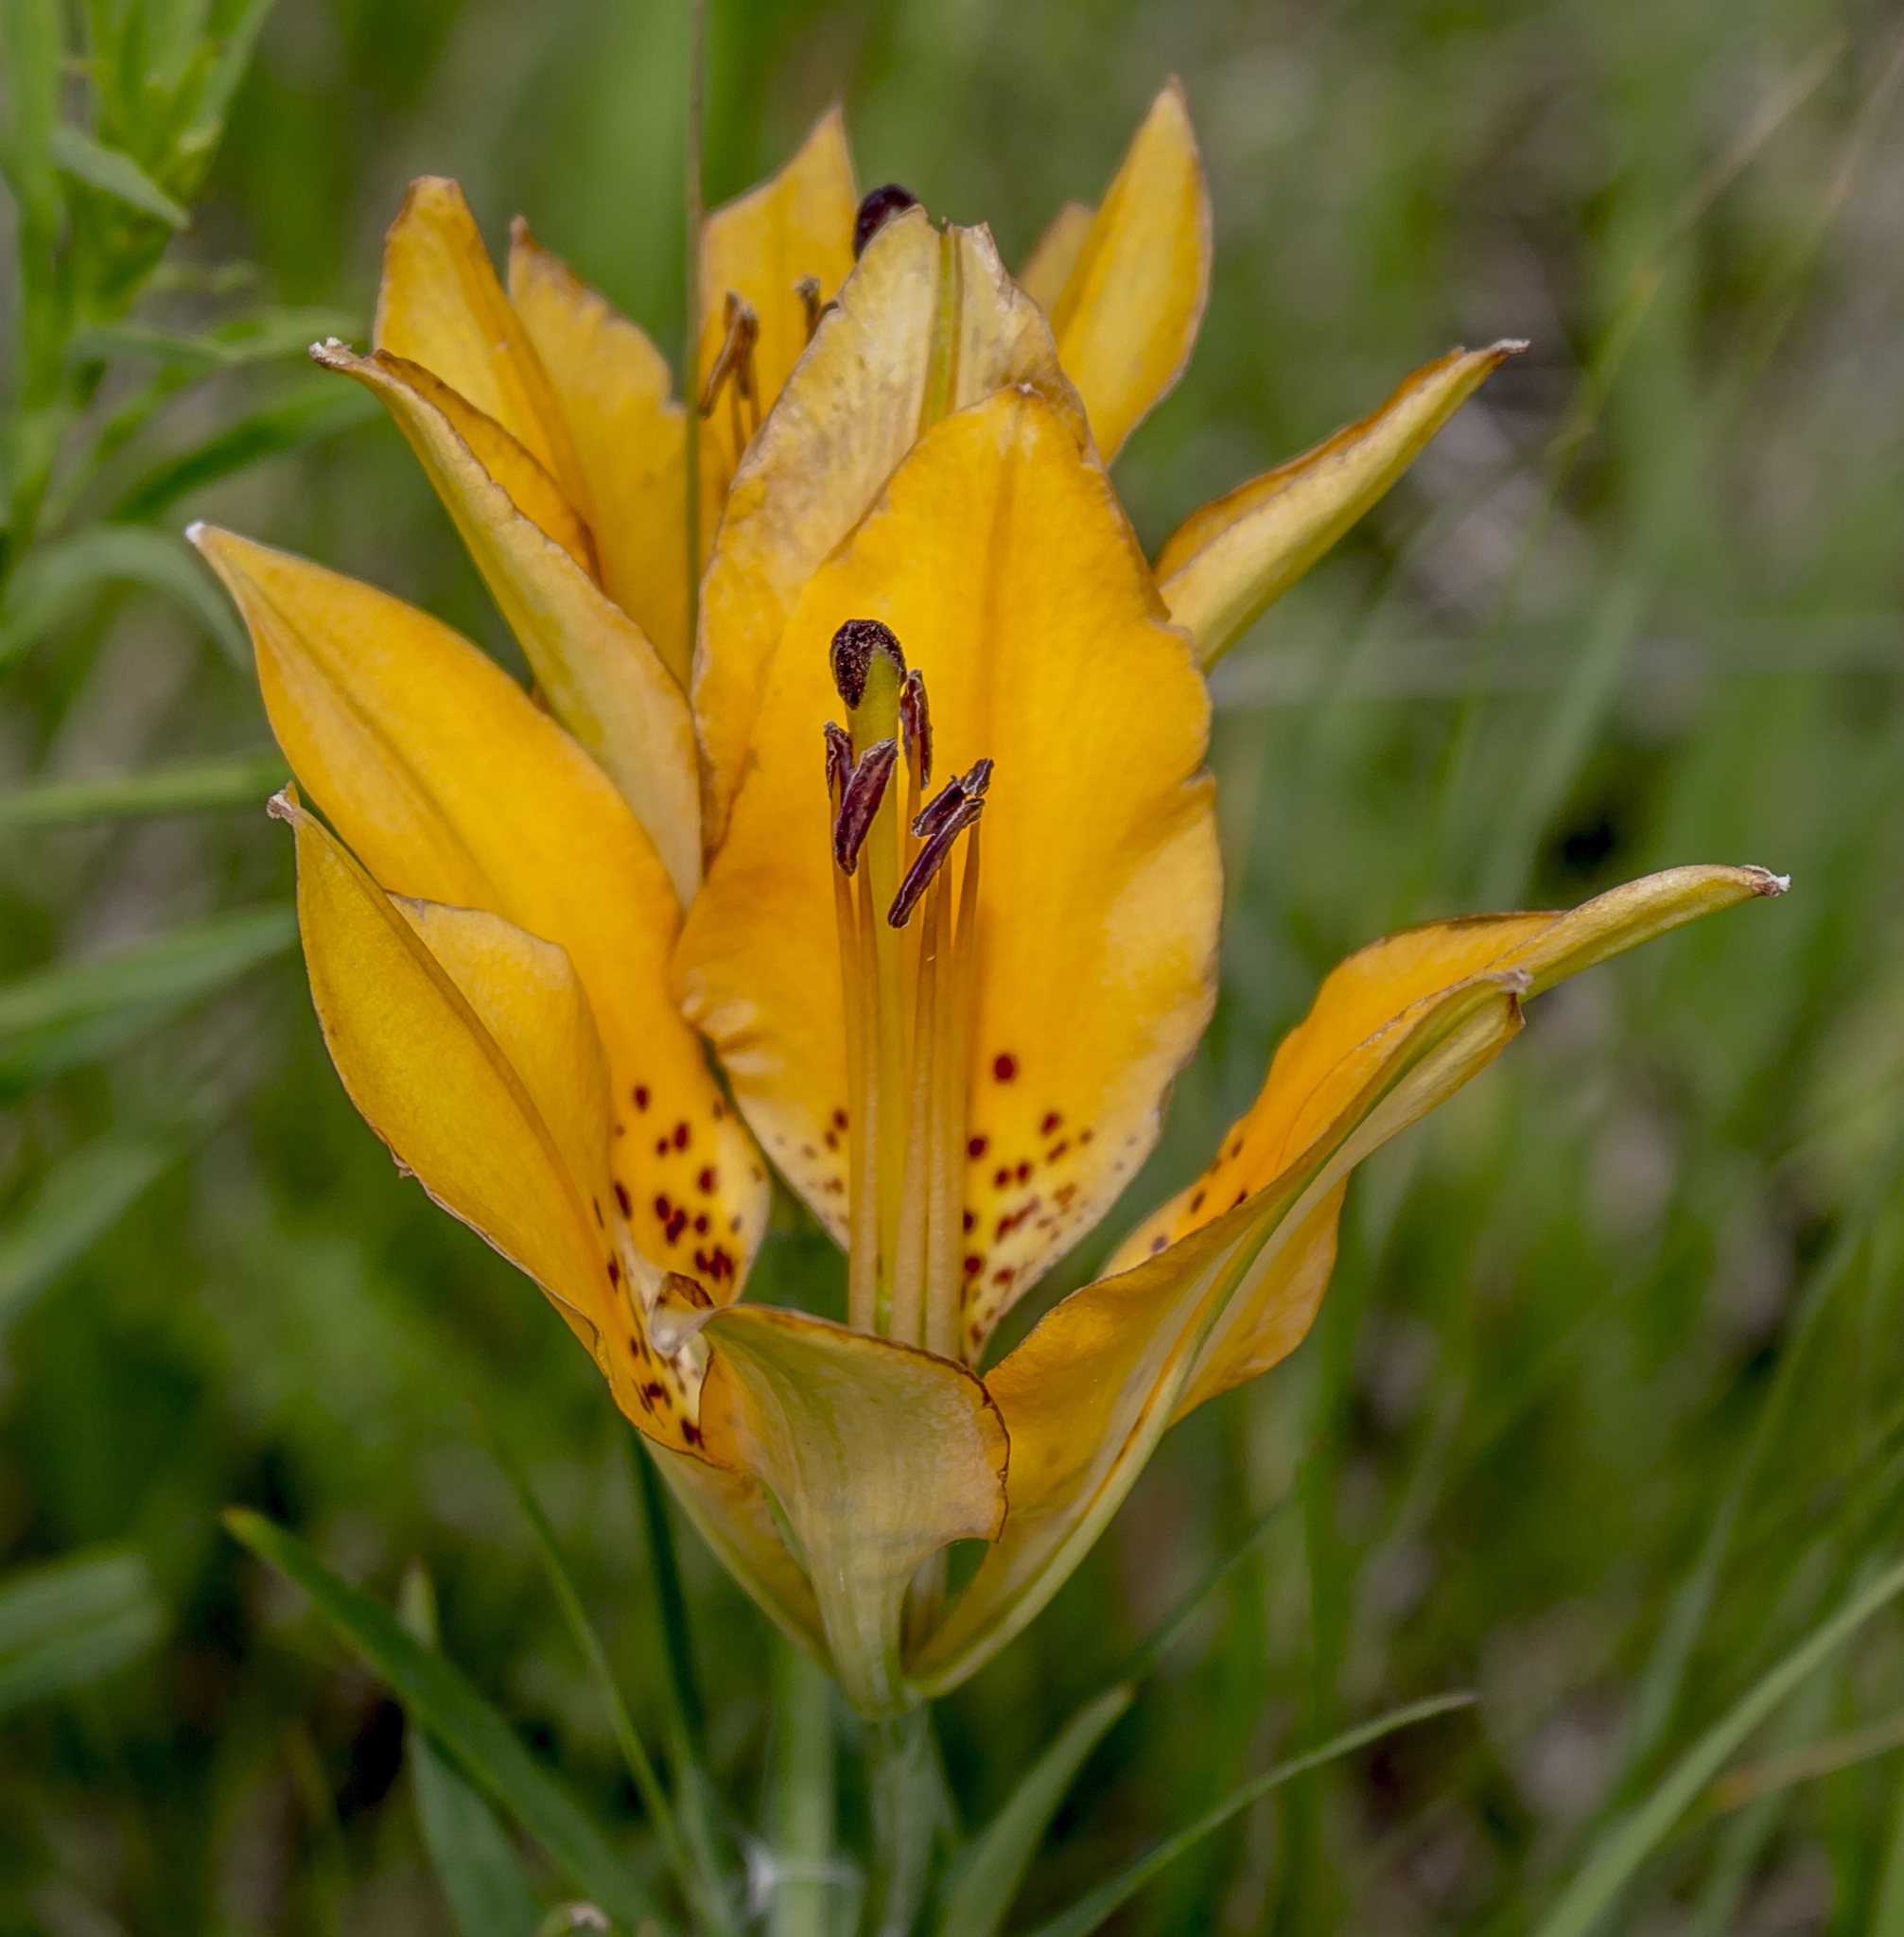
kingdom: Plantae
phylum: Tracheophyta
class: Liliopsida
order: Liliales
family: Liliaceae
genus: Lilium
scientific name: Lilium philadelphicum
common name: Red lily
